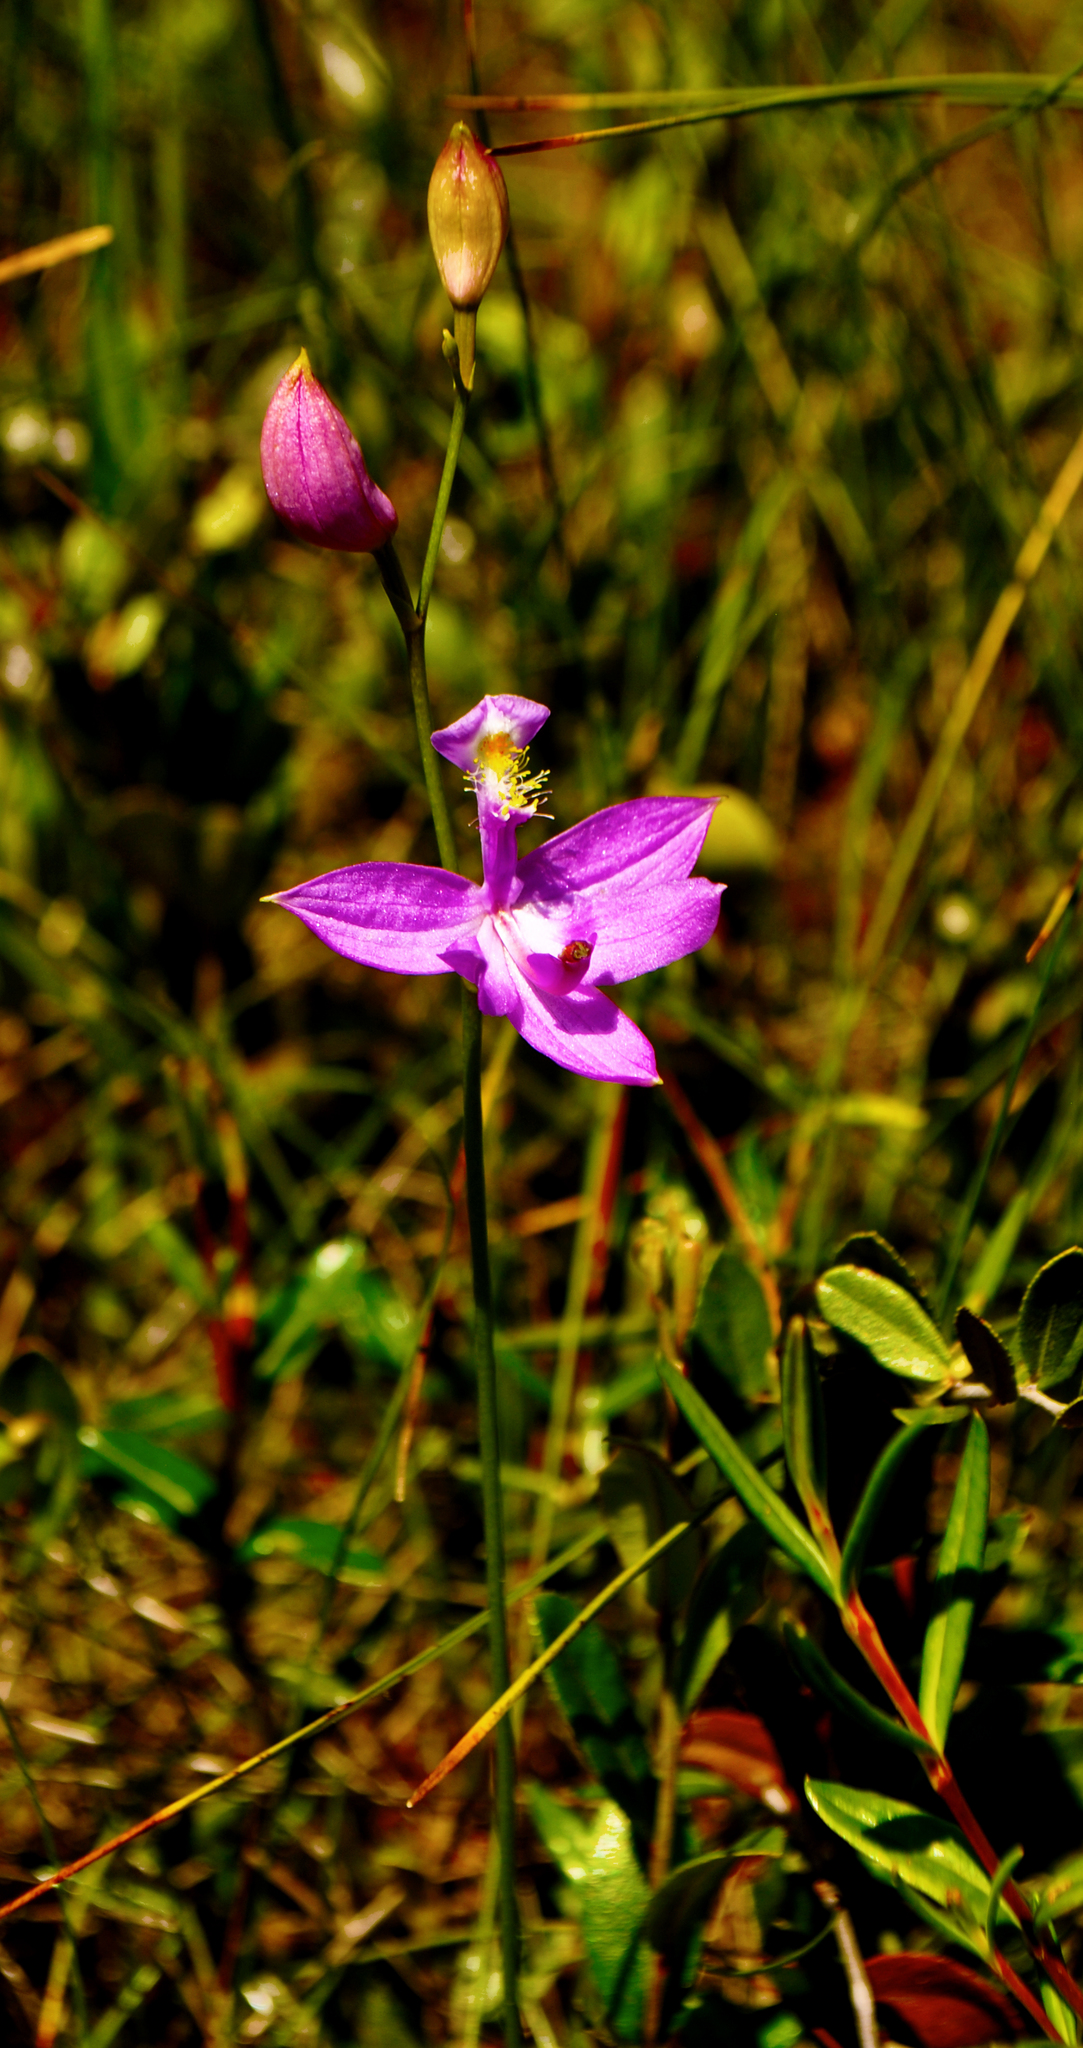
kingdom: Plantae
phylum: Tracheophyta
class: Liliopsida
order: Asparagales
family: Orchidaceae
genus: Calopogon
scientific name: Calopogon tuberosus
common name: Grass-pink
